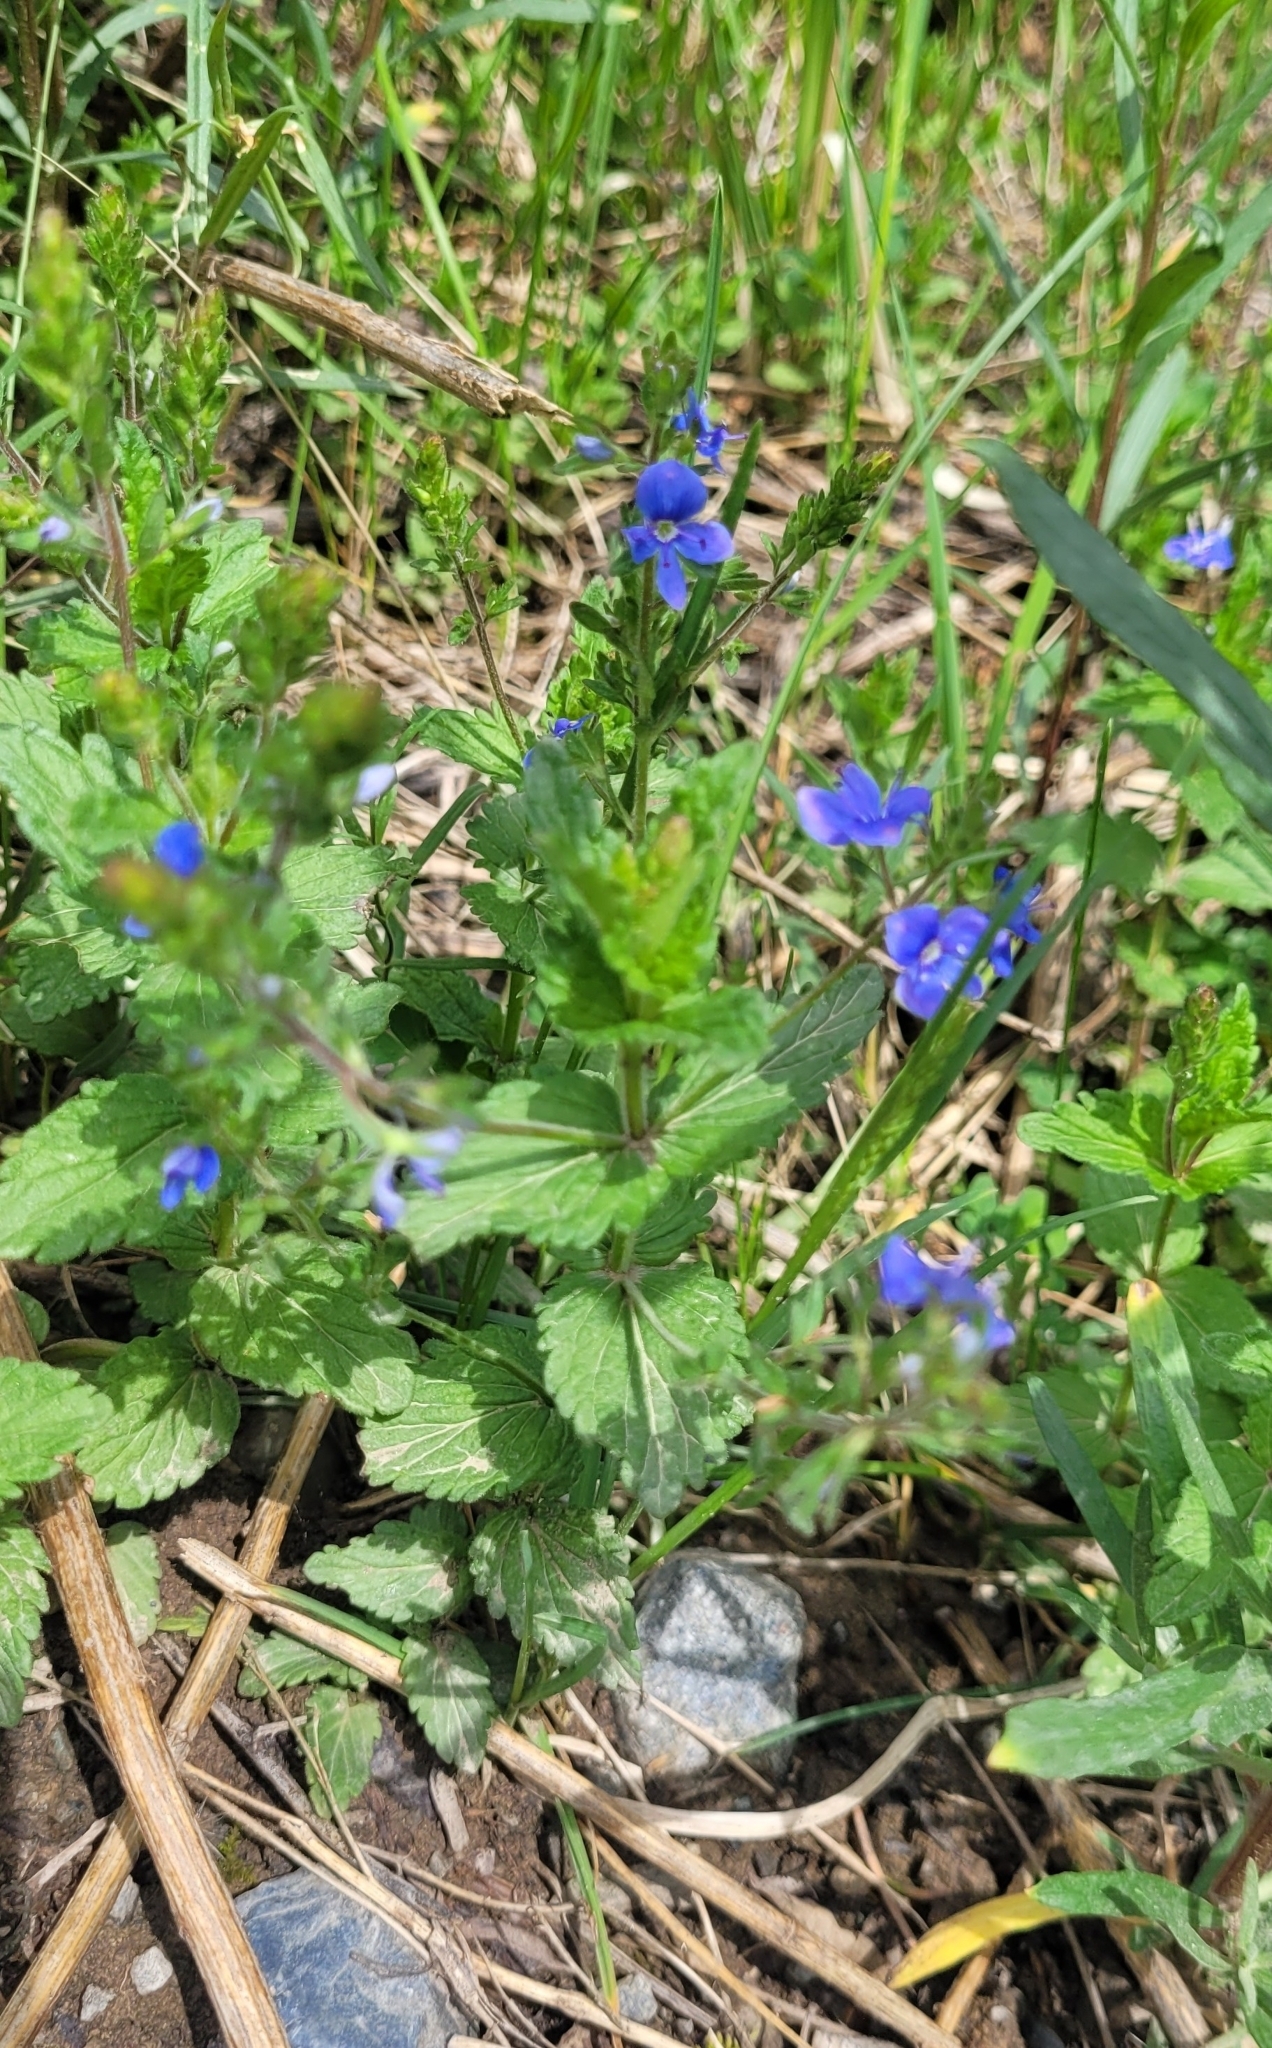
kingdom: Plantae
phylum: Tracheophyta
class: Magnoliopsida
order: Lamiales
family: Plantaginaceae
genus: Veronica
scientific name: Veronica chamaedrys
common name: Germander speedwell
